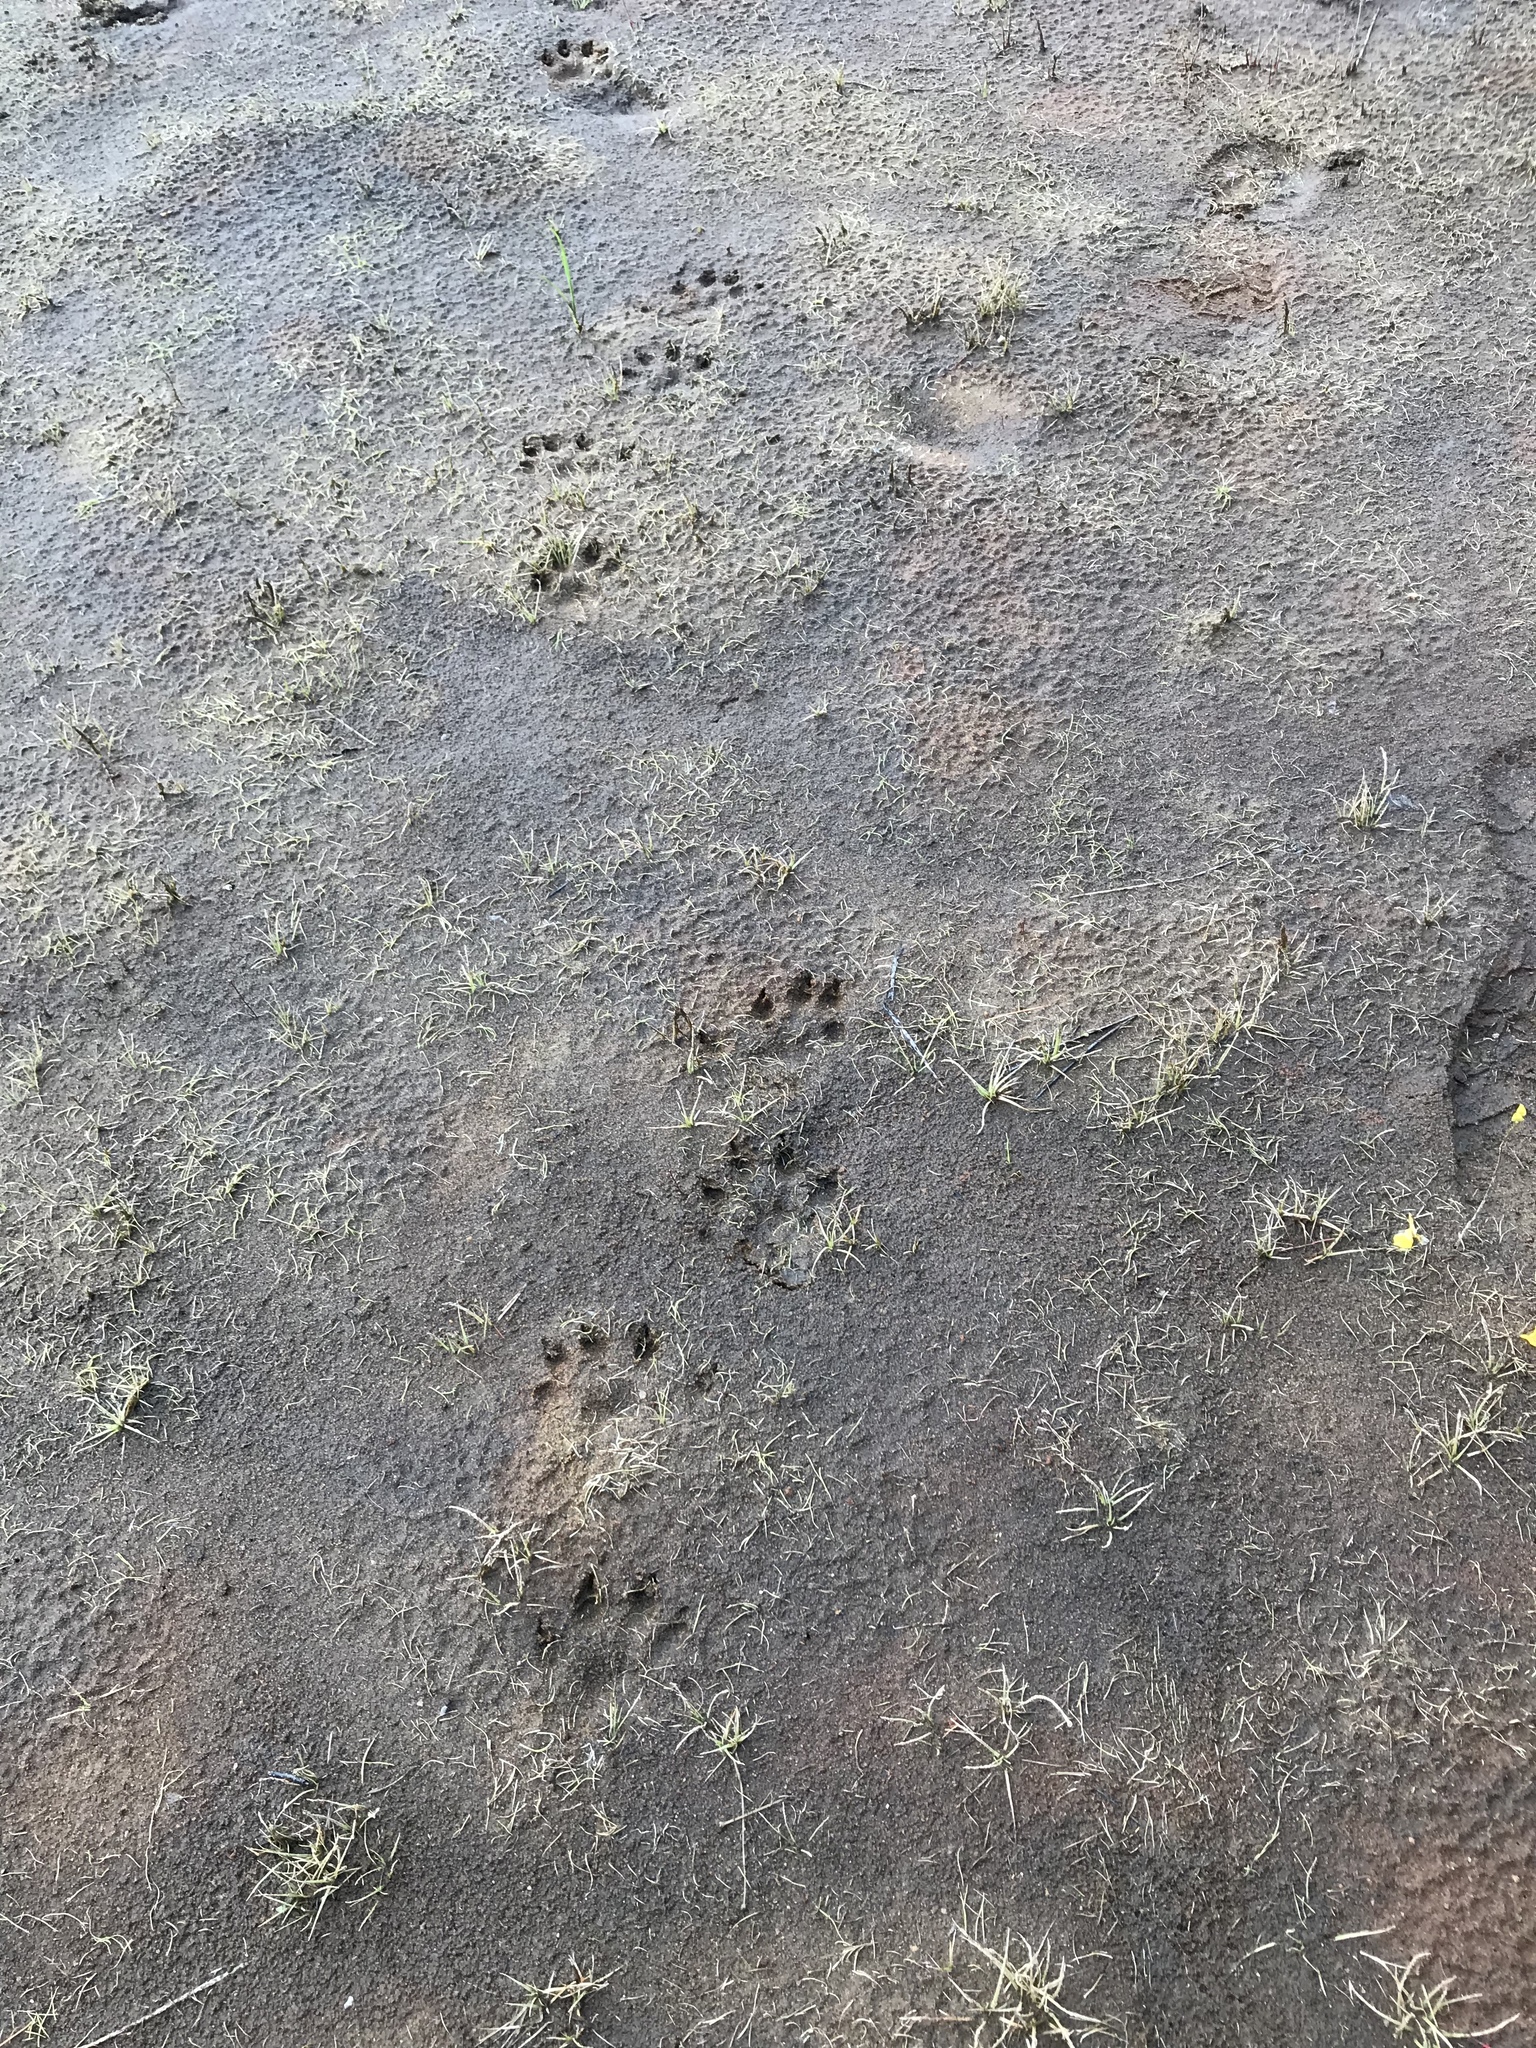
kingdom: Animalia
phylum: Chordata
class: Mammalia
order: Carnivora
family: Mustelidae
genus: Lontra
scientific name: Lontra canadensis
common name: North american river otter
